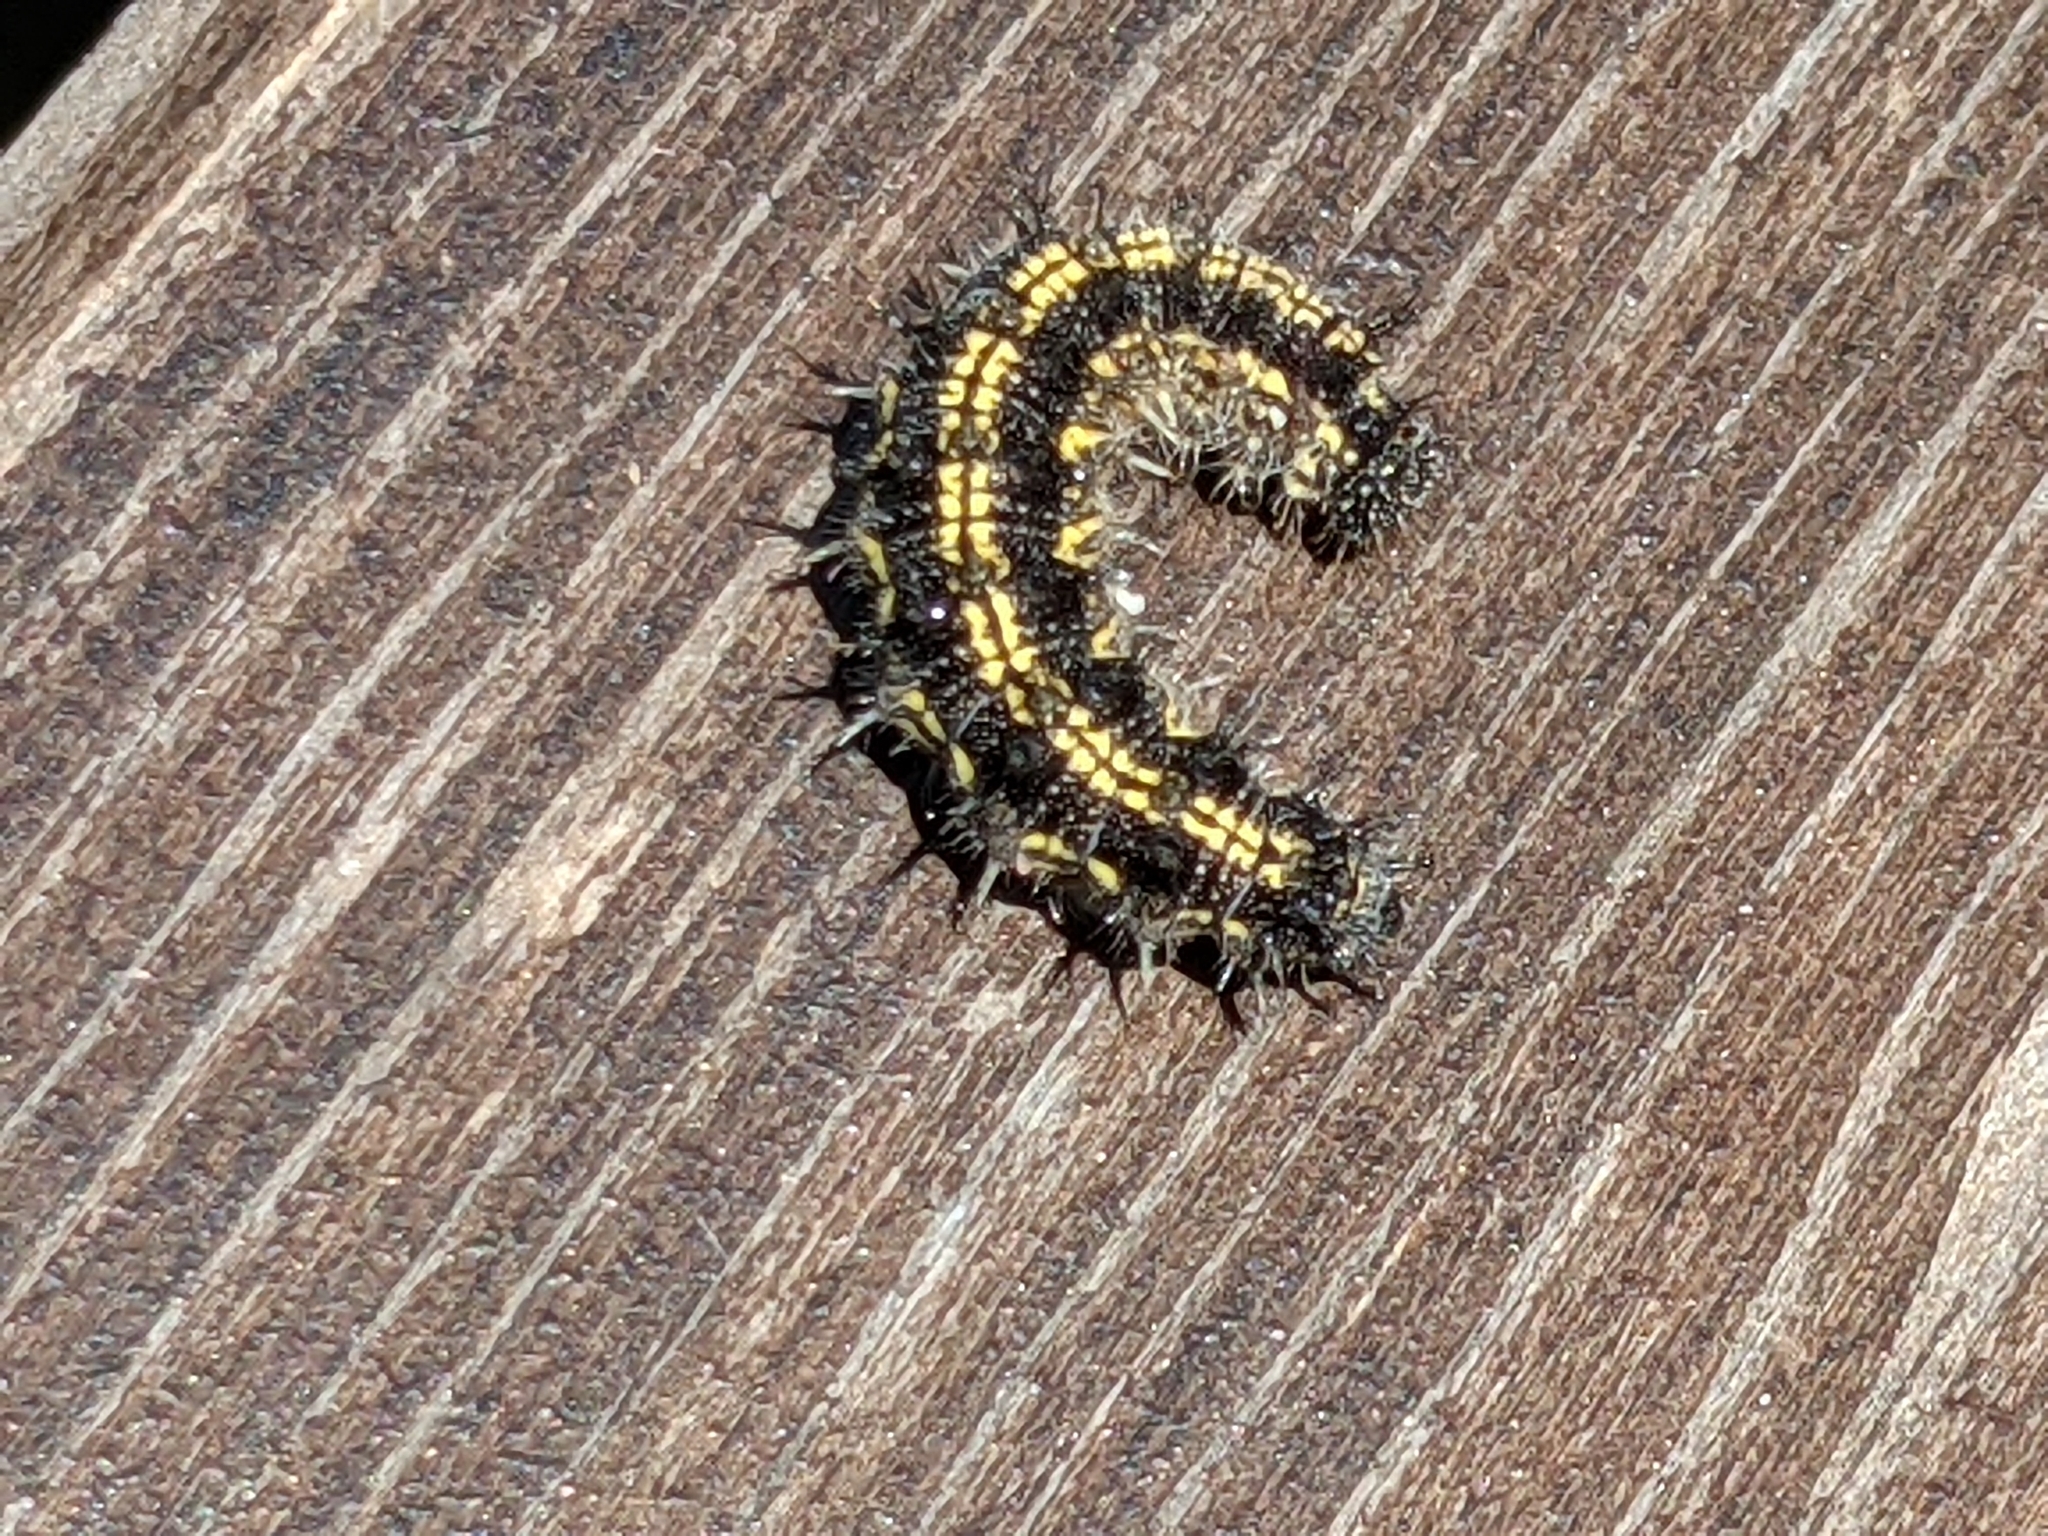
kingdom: Animalia
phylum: Arthropoda
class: Insecta
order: Lepidoptera
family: Nymphalidae
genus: Aglais
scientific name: Aglais urticae
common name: Small tortoiseshell
